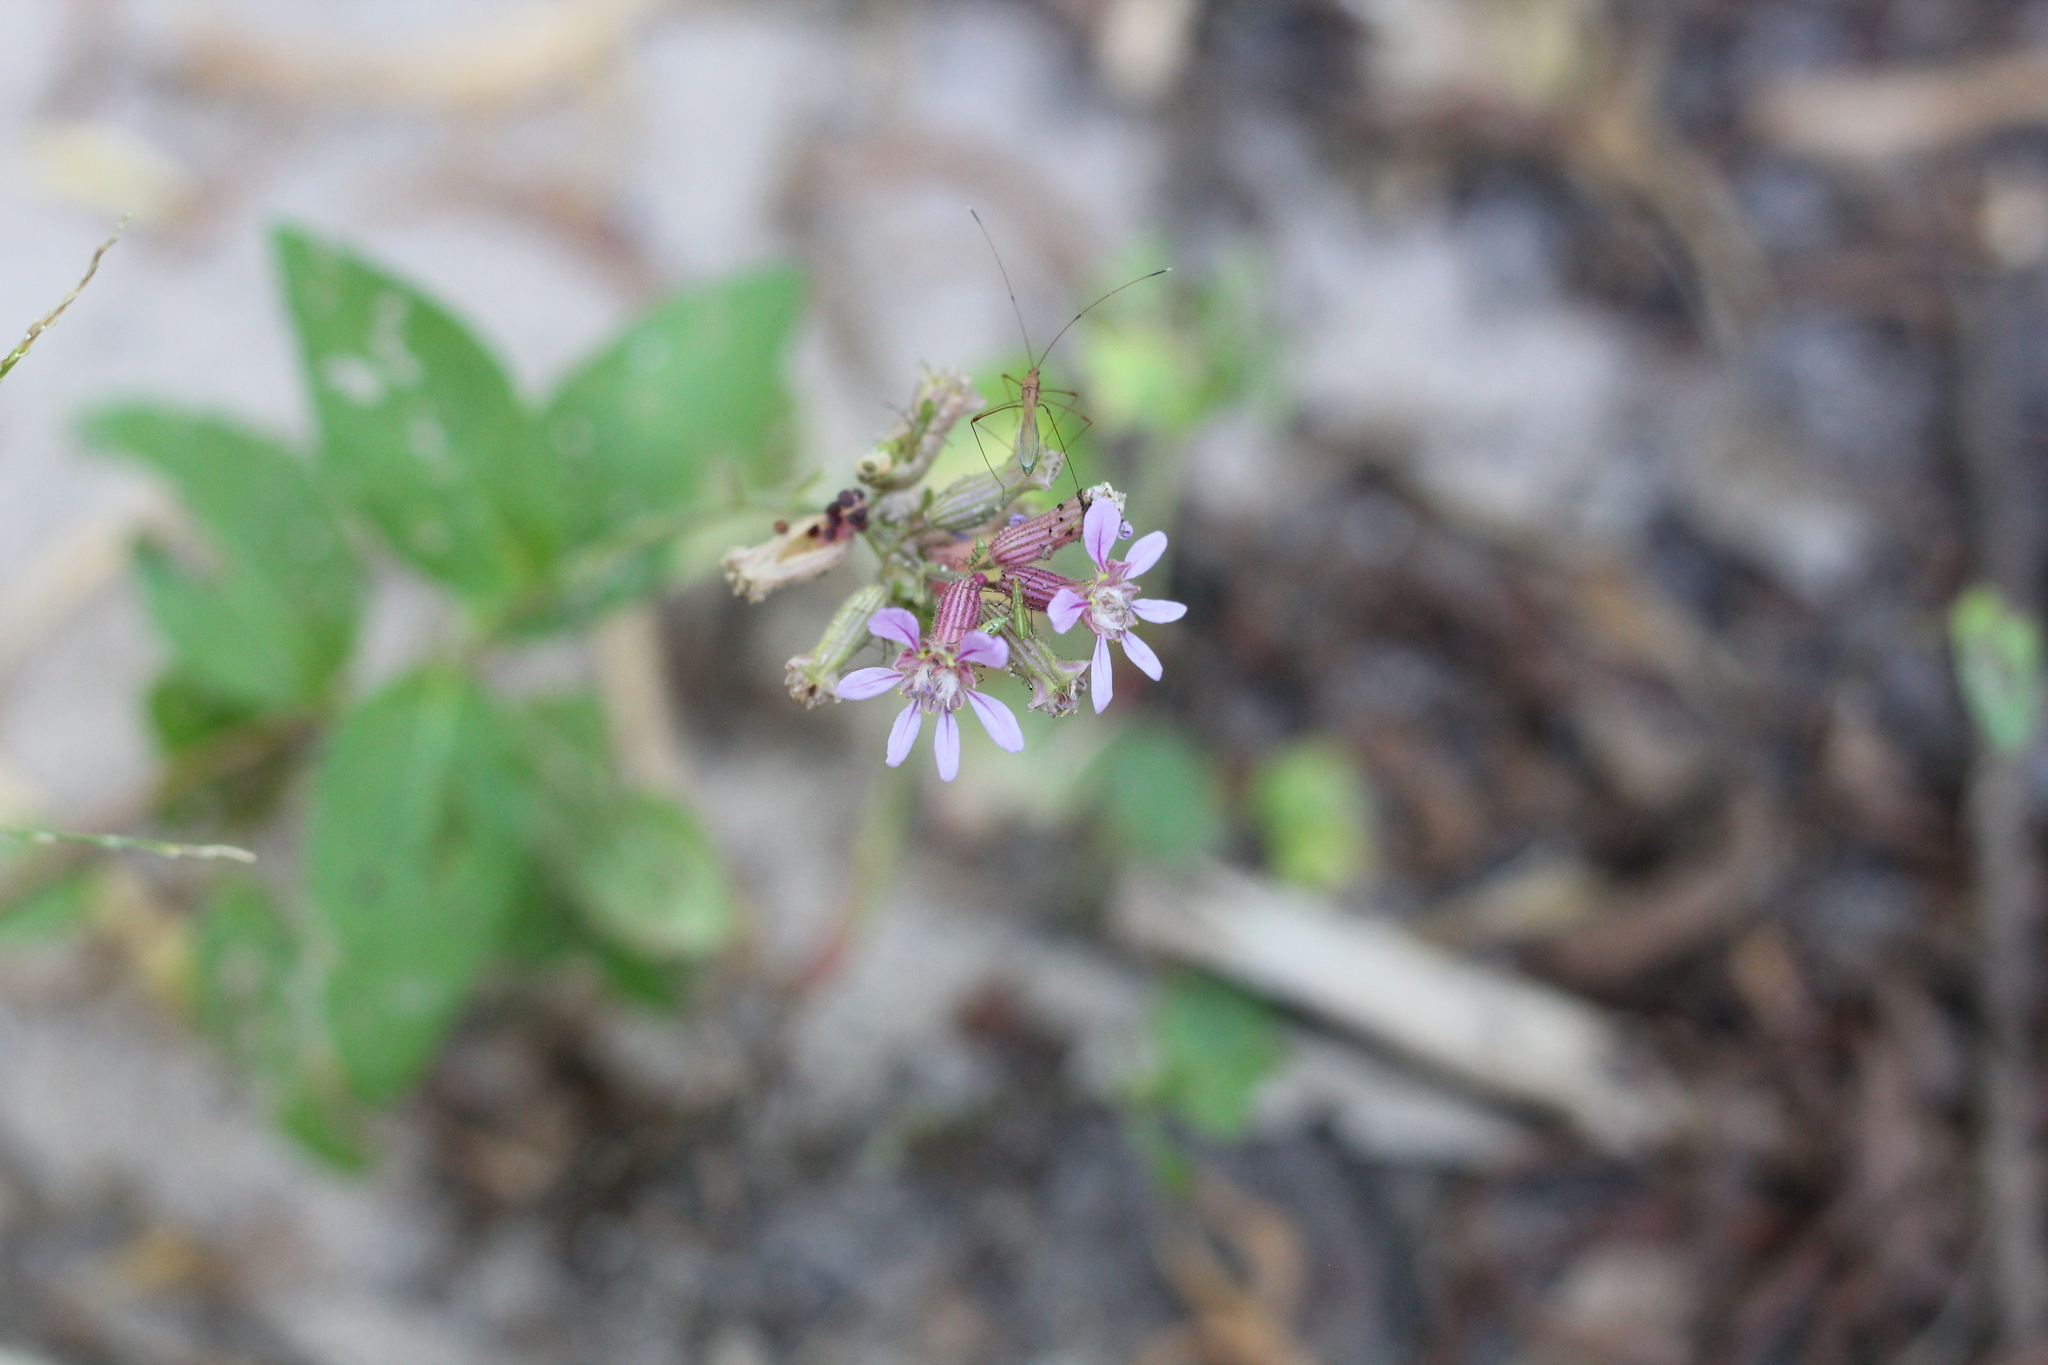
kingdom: Plantae
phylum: Tracheophyta
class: Magnoliopsida
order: Myrtales
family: Lythraceae
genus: Cuphea
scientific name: Cuphea glutinosa
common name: Sticky waxweed
